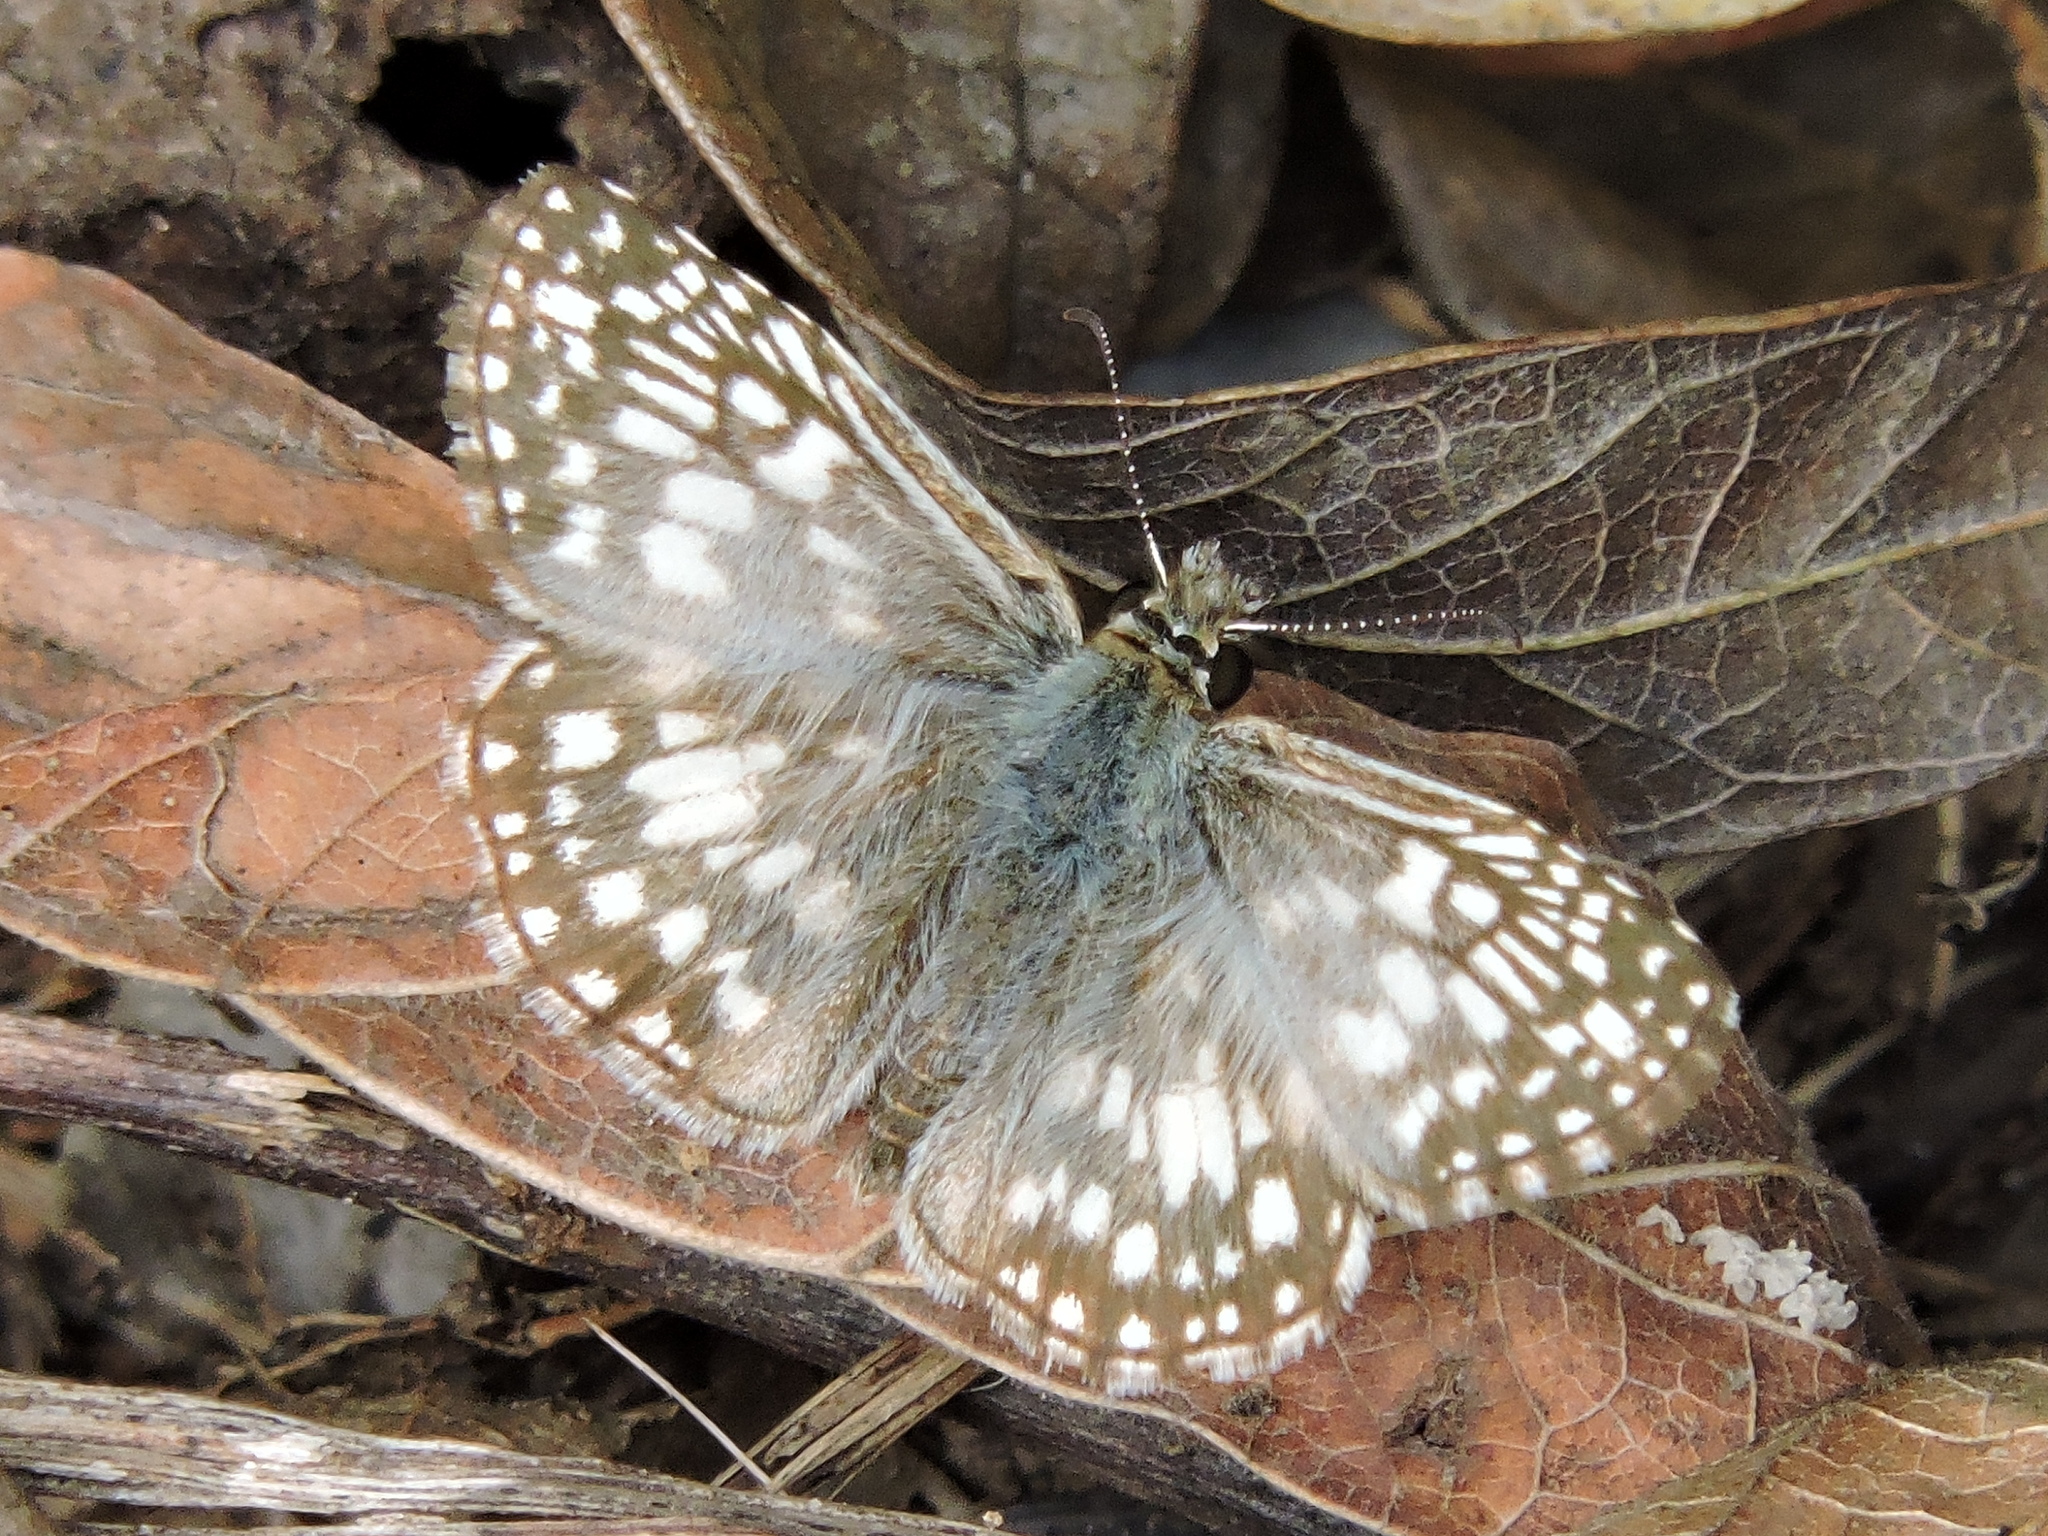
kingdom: Animalia
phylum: Arthropoda
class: Insecta
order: Lepidoptera
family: Hesperiidae
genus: Pyrgus
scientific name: Pyrgus oileus
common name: Tropical checkered-skipper
